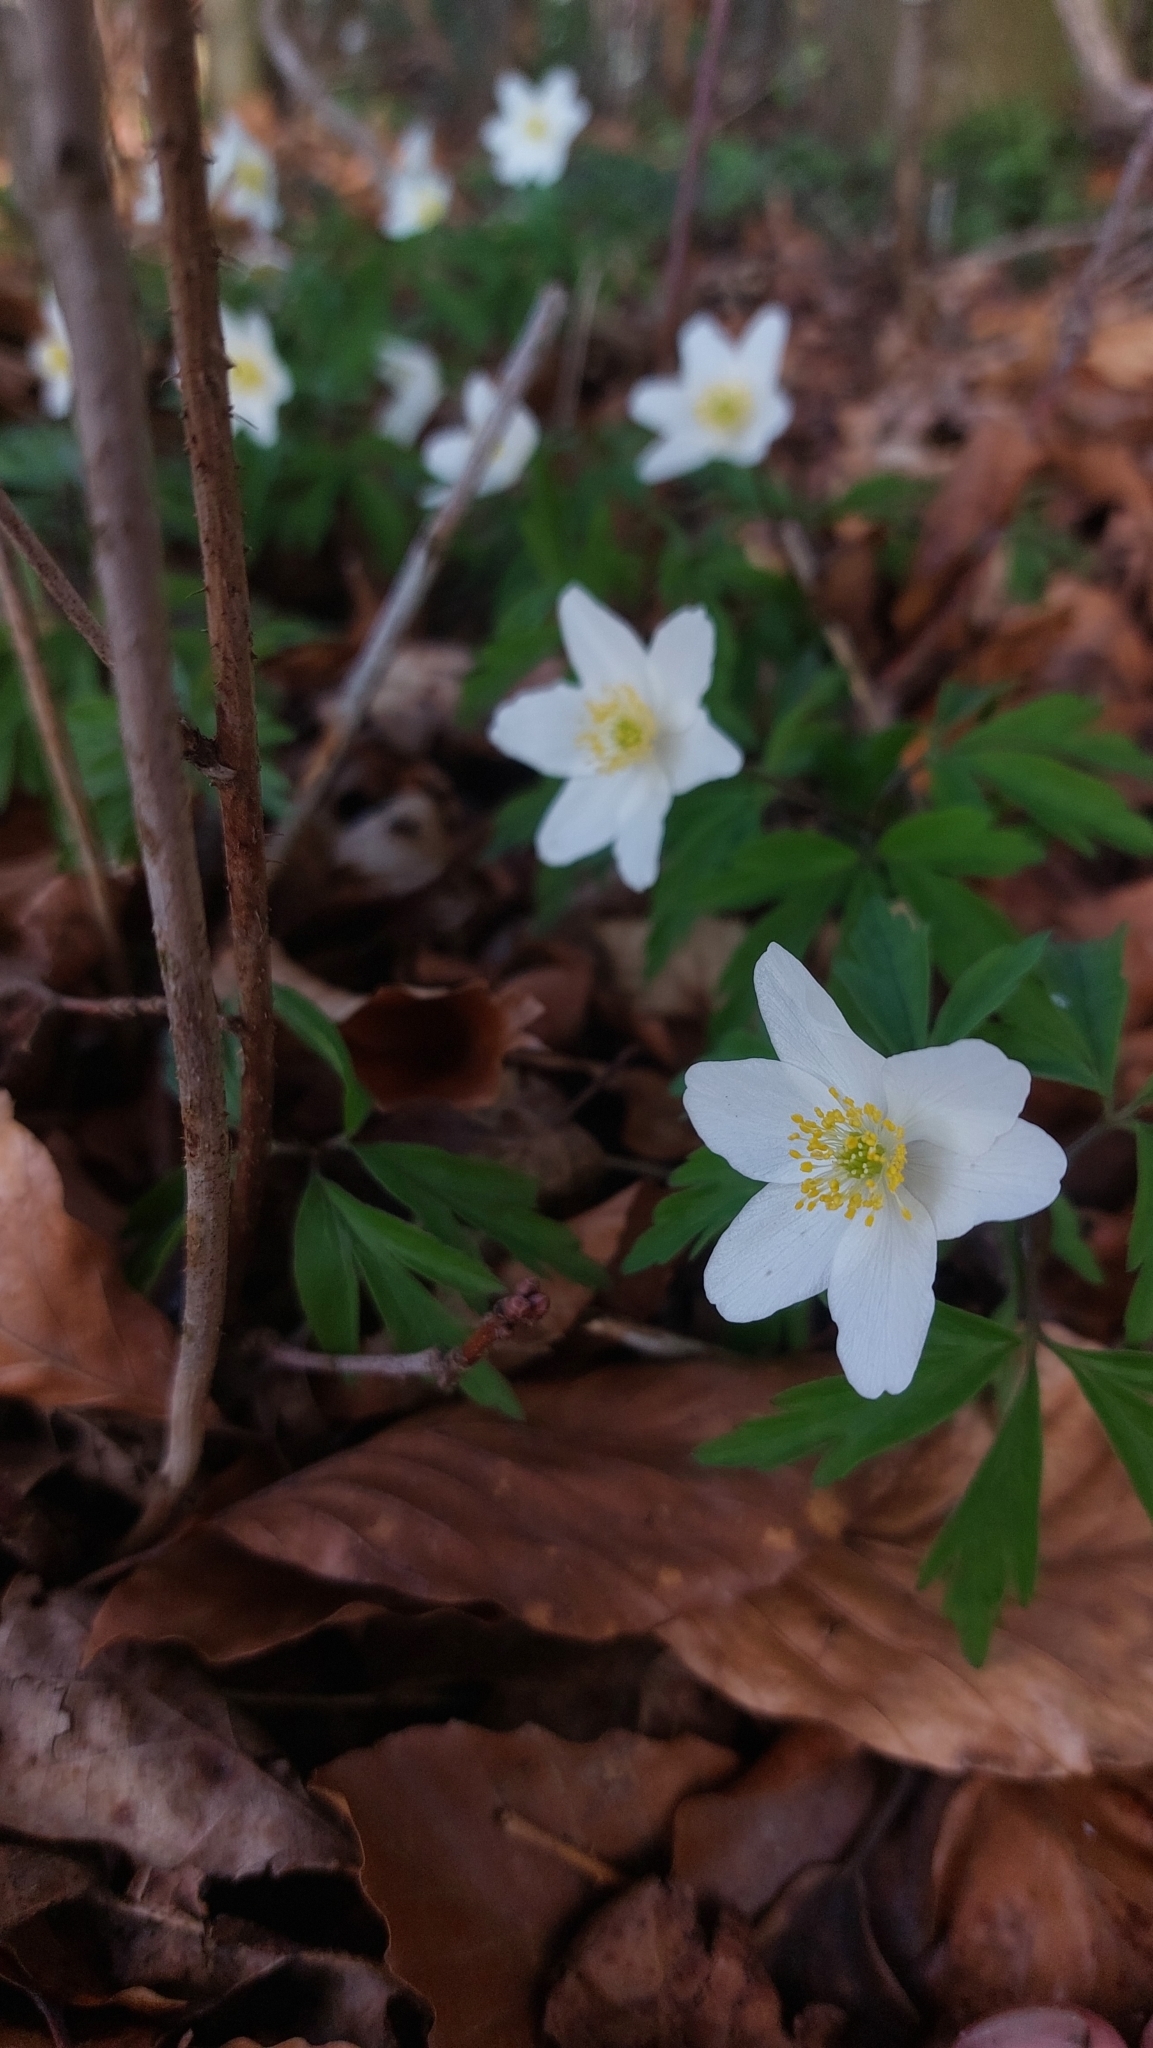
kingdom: Plantae
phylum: Tracheophyta
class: Magnoliopsida
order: Ranunculales
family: Ranunculaceae
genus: Anemone
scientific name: Anemone nemorosa
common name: Wood anemone
